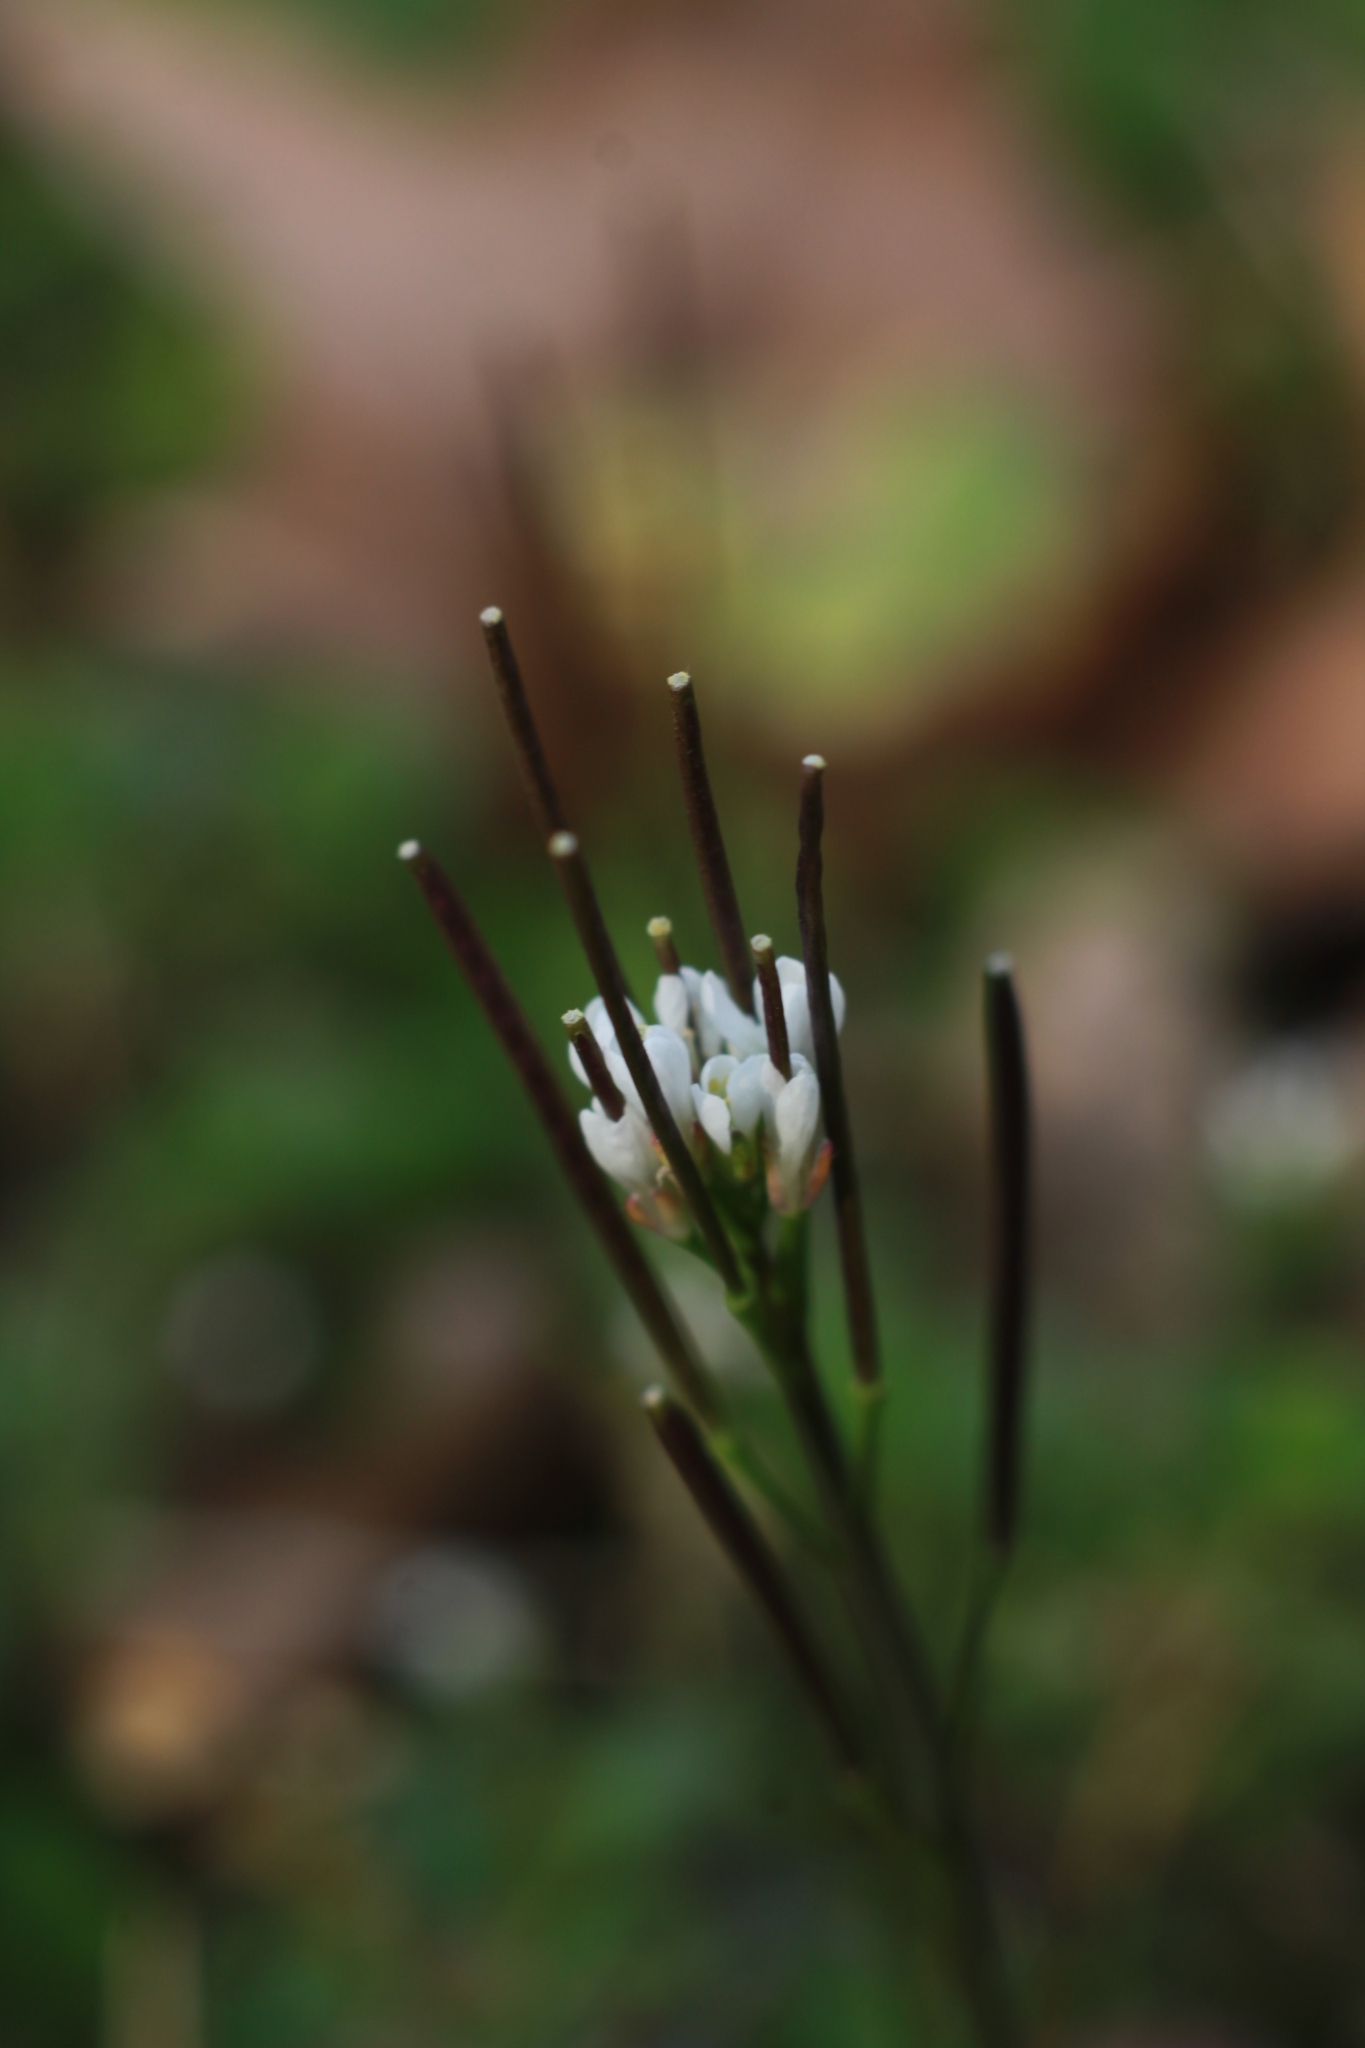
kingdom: Plantae
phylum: Tracheophyta
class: Magnoliopsida
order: Brassicales
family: Brassicaceae
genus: Cardamine
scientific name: Cardamine hirsuta
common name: Hairy bittercress
